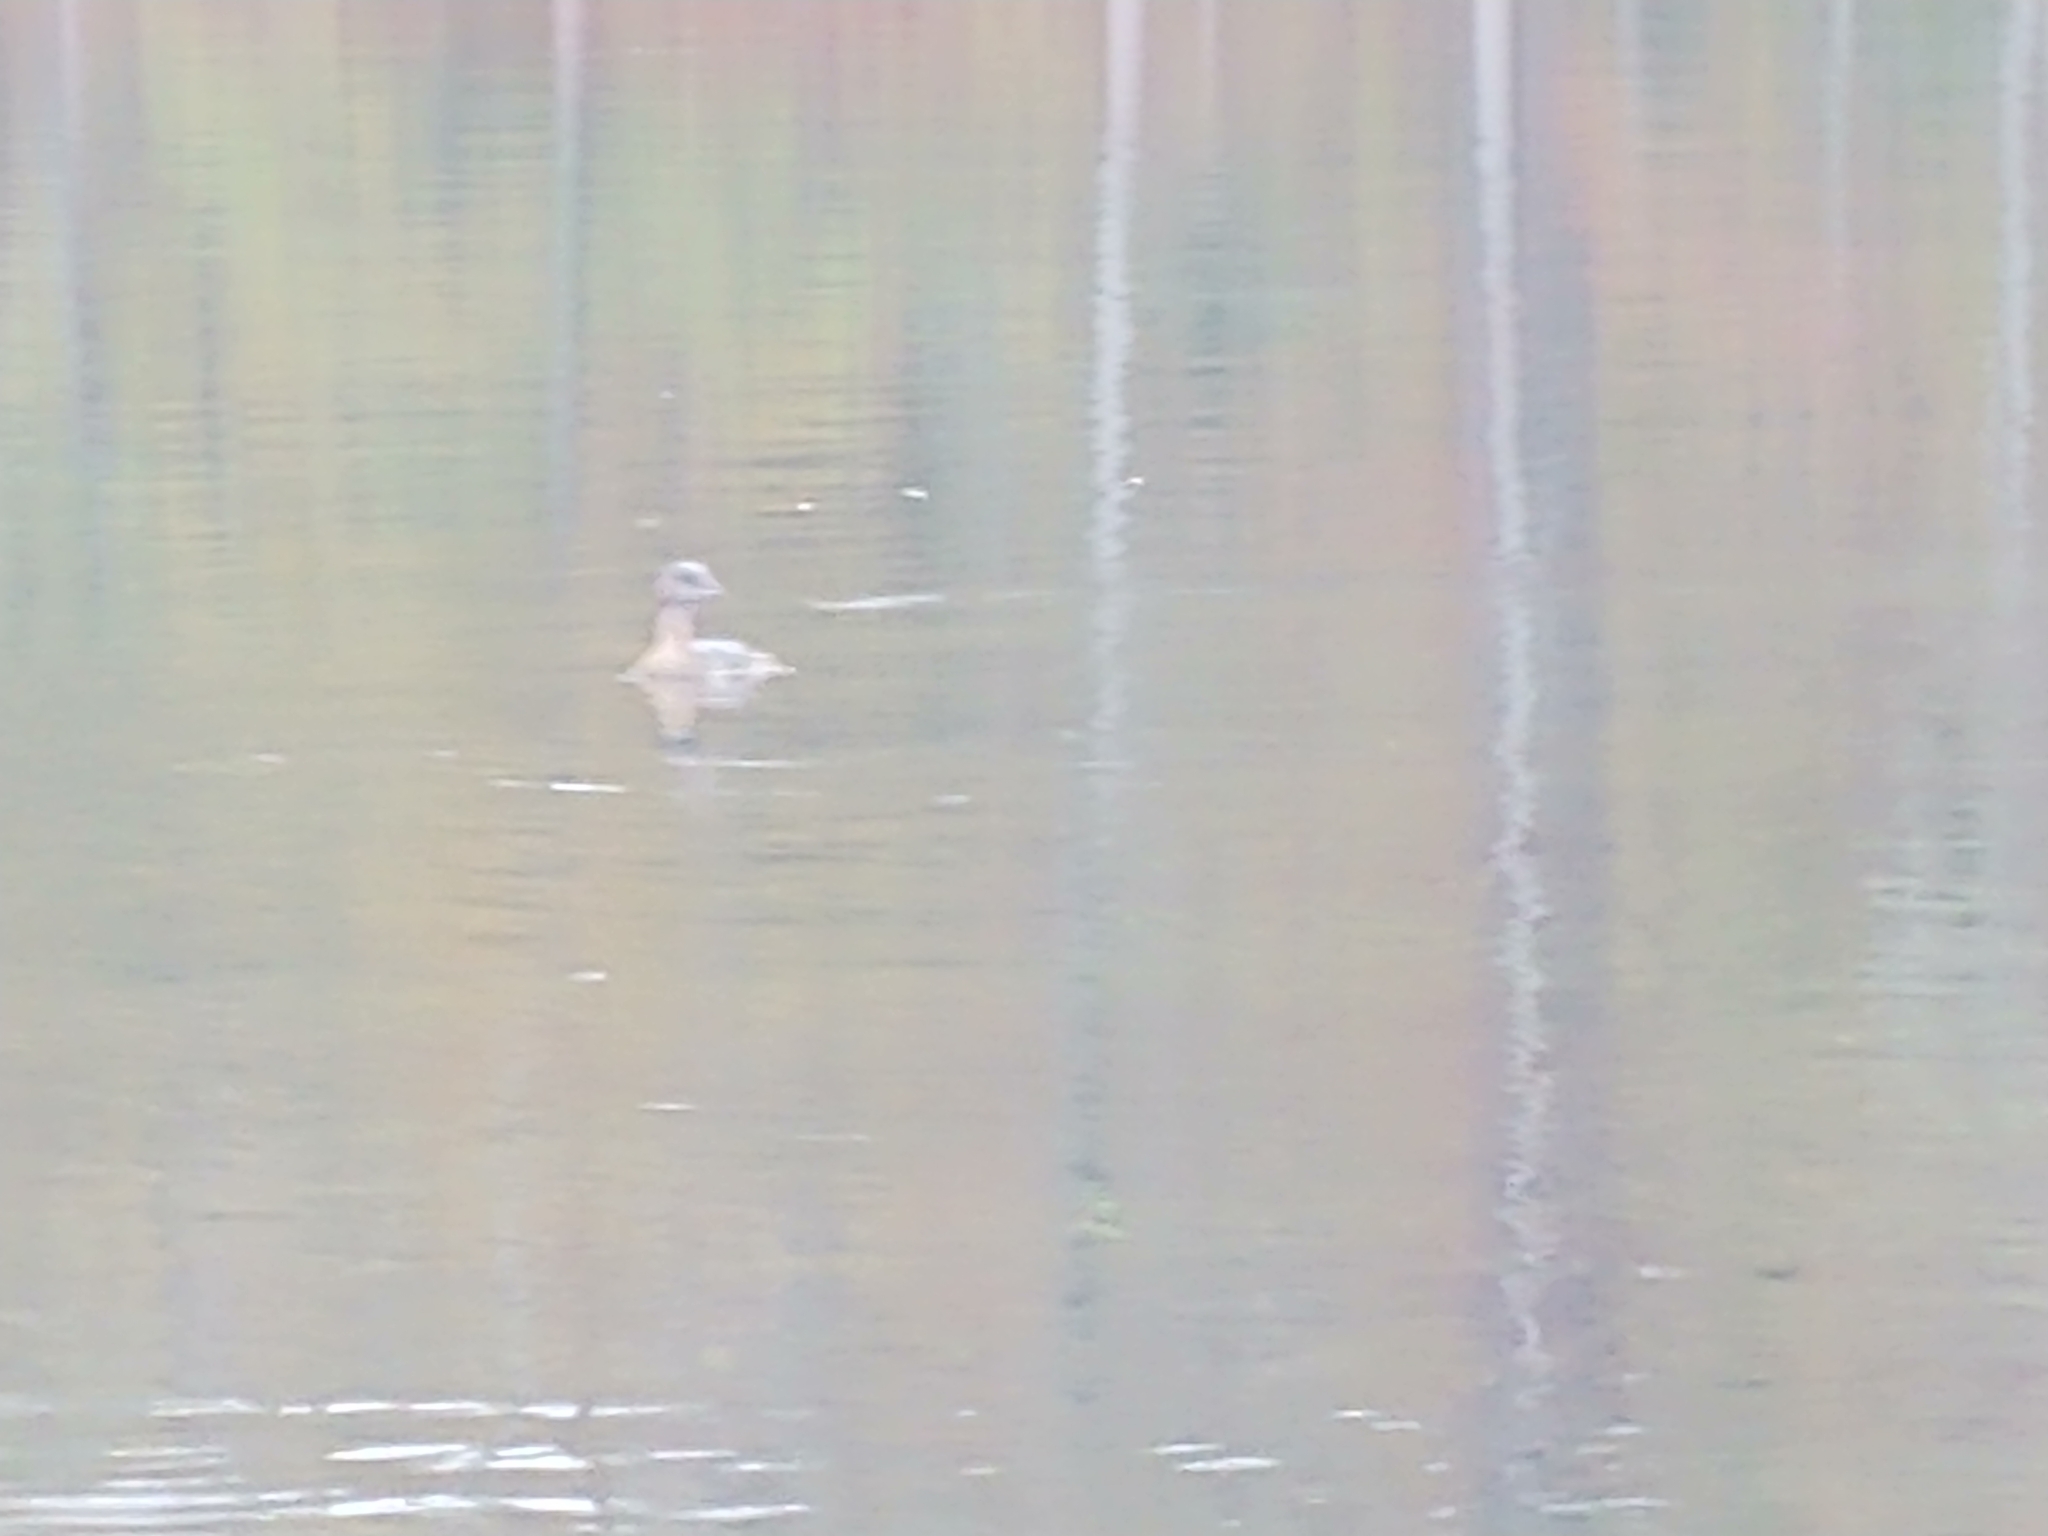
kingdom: Animalia
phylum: Chordata
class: Aves
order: Podicipediformes
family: Podicipedidae
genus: Podilymbus
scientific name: Podilymbus podiceps
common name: Pied-billed grebe
